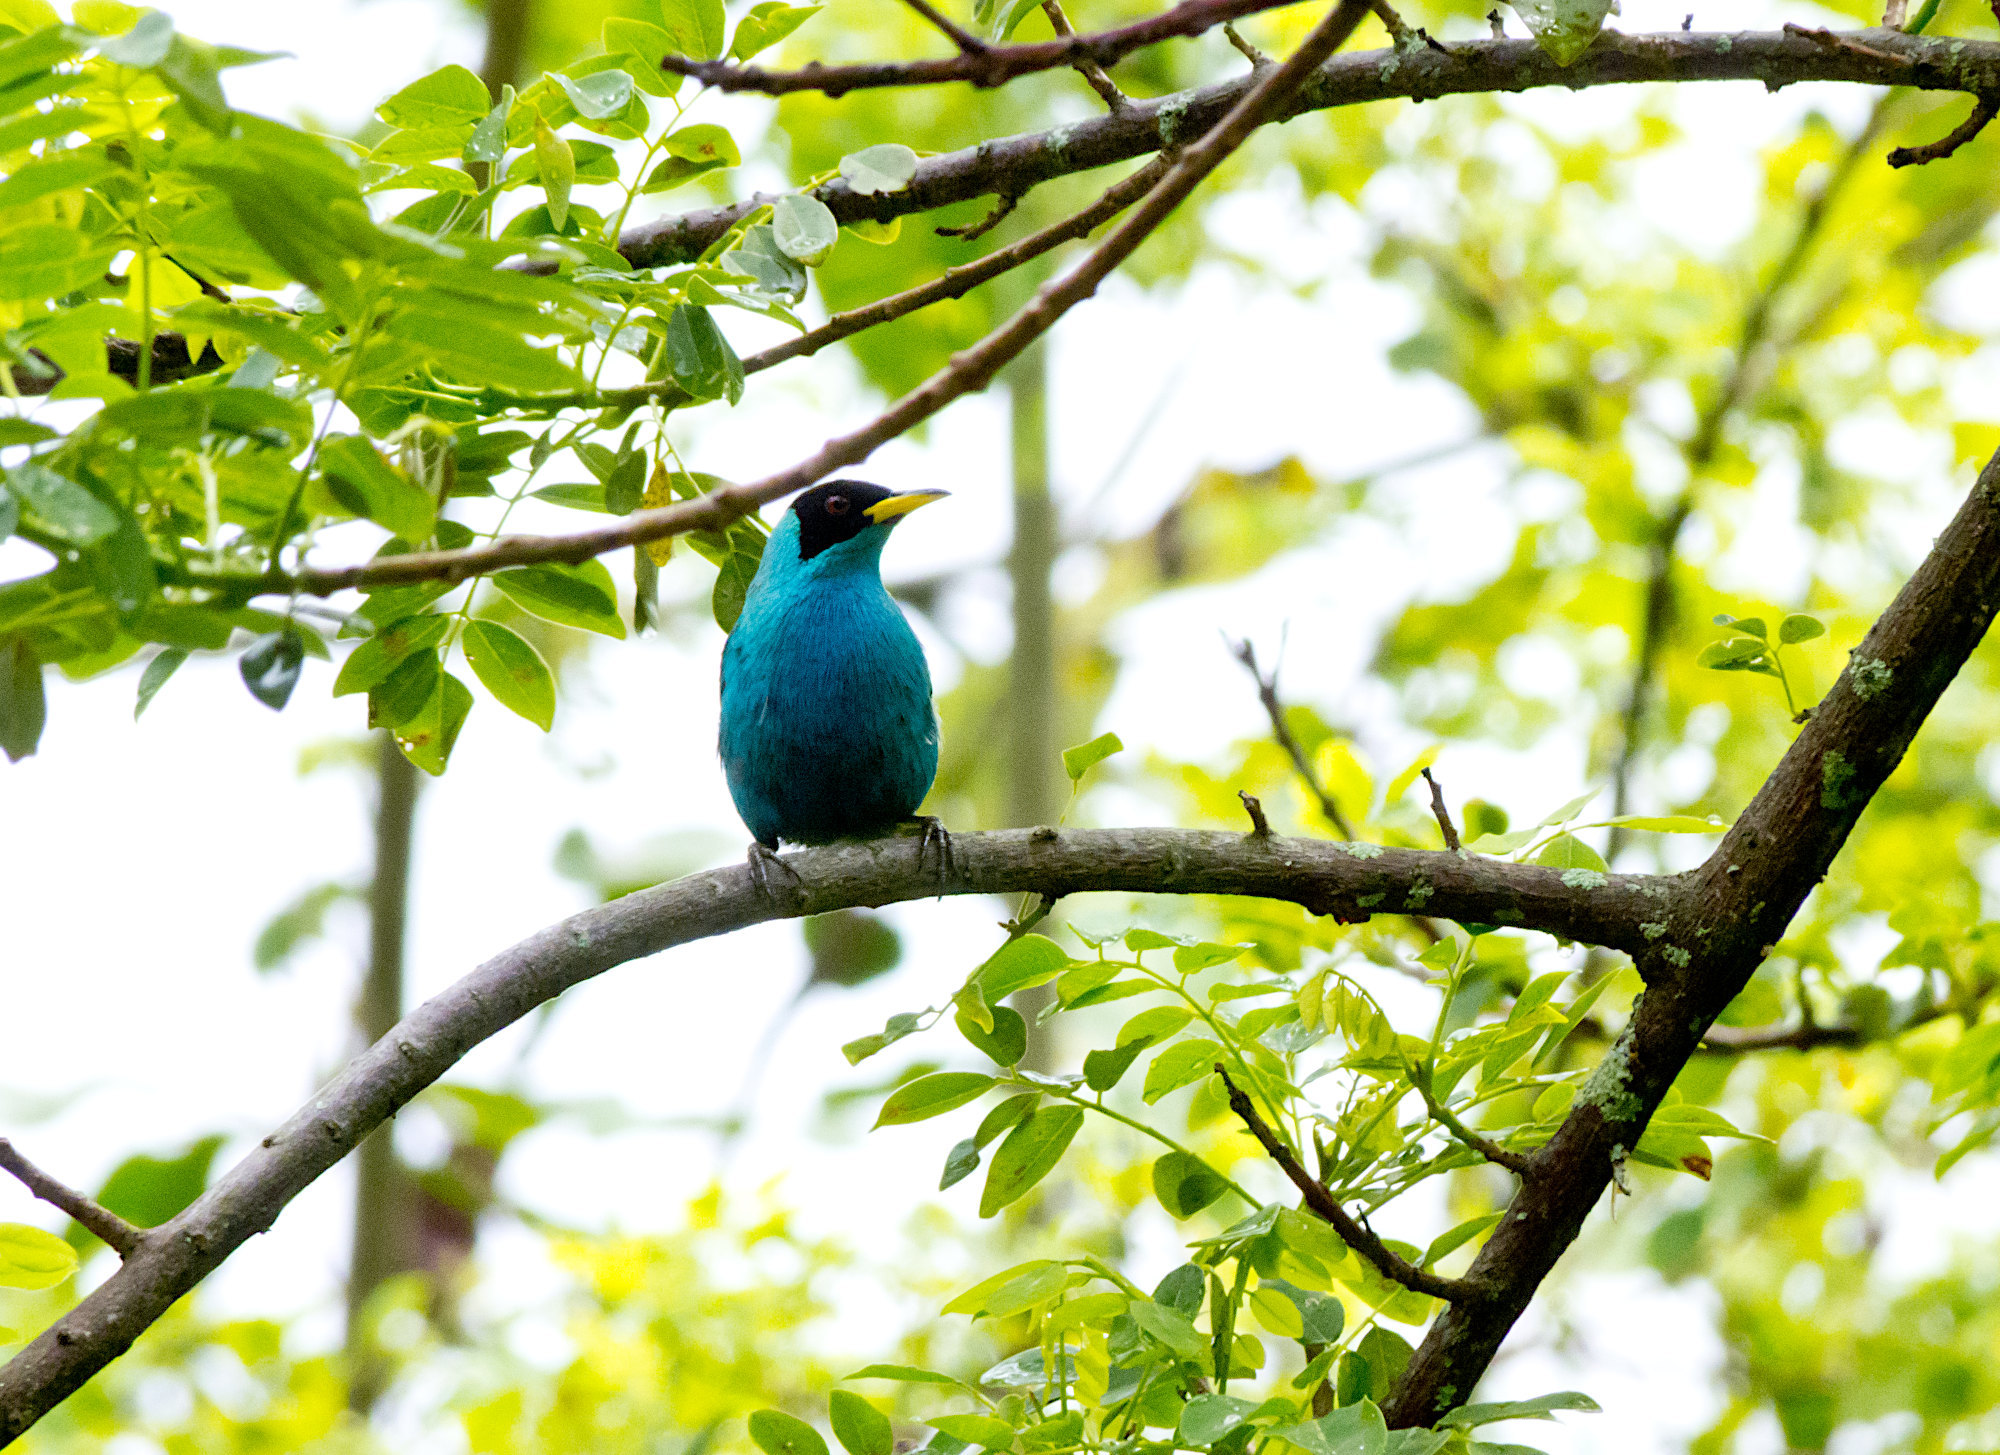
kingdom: Animalia
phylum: Chordata
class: Aves
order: Passeriformes
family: Thraupidae
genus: Chlorophanes
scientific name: Chlorophanes spiza
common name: Green honeycreeper
